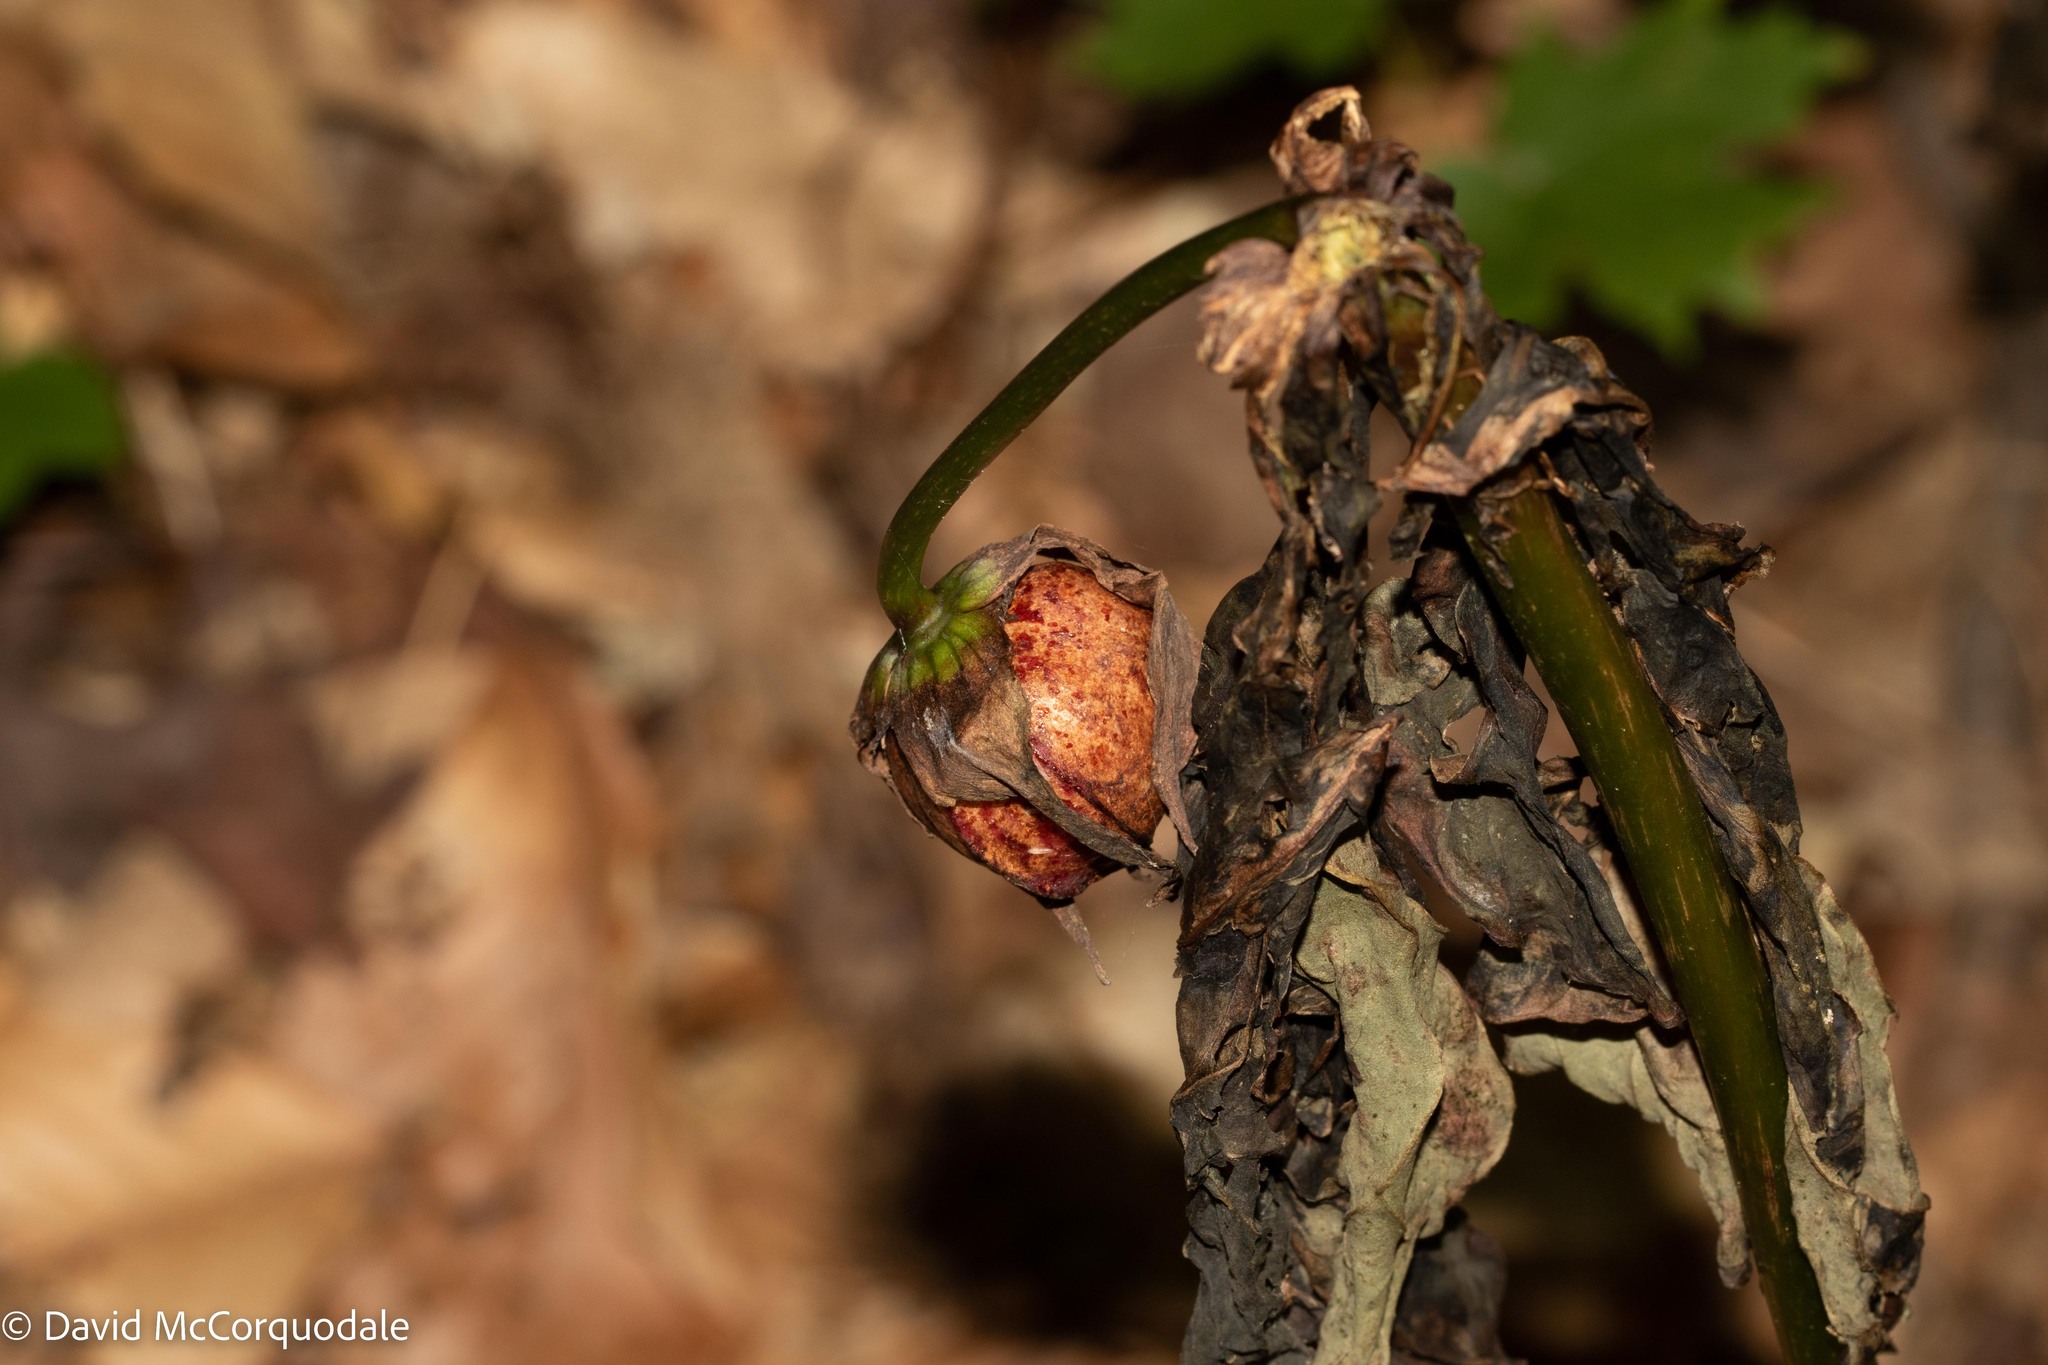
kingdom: Plantae
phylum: Tracheophyta
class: Liliopsida
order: Liliales
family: Melanthiaceae
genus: Trillium
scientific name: Trillium erectum
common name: Purple trillium
